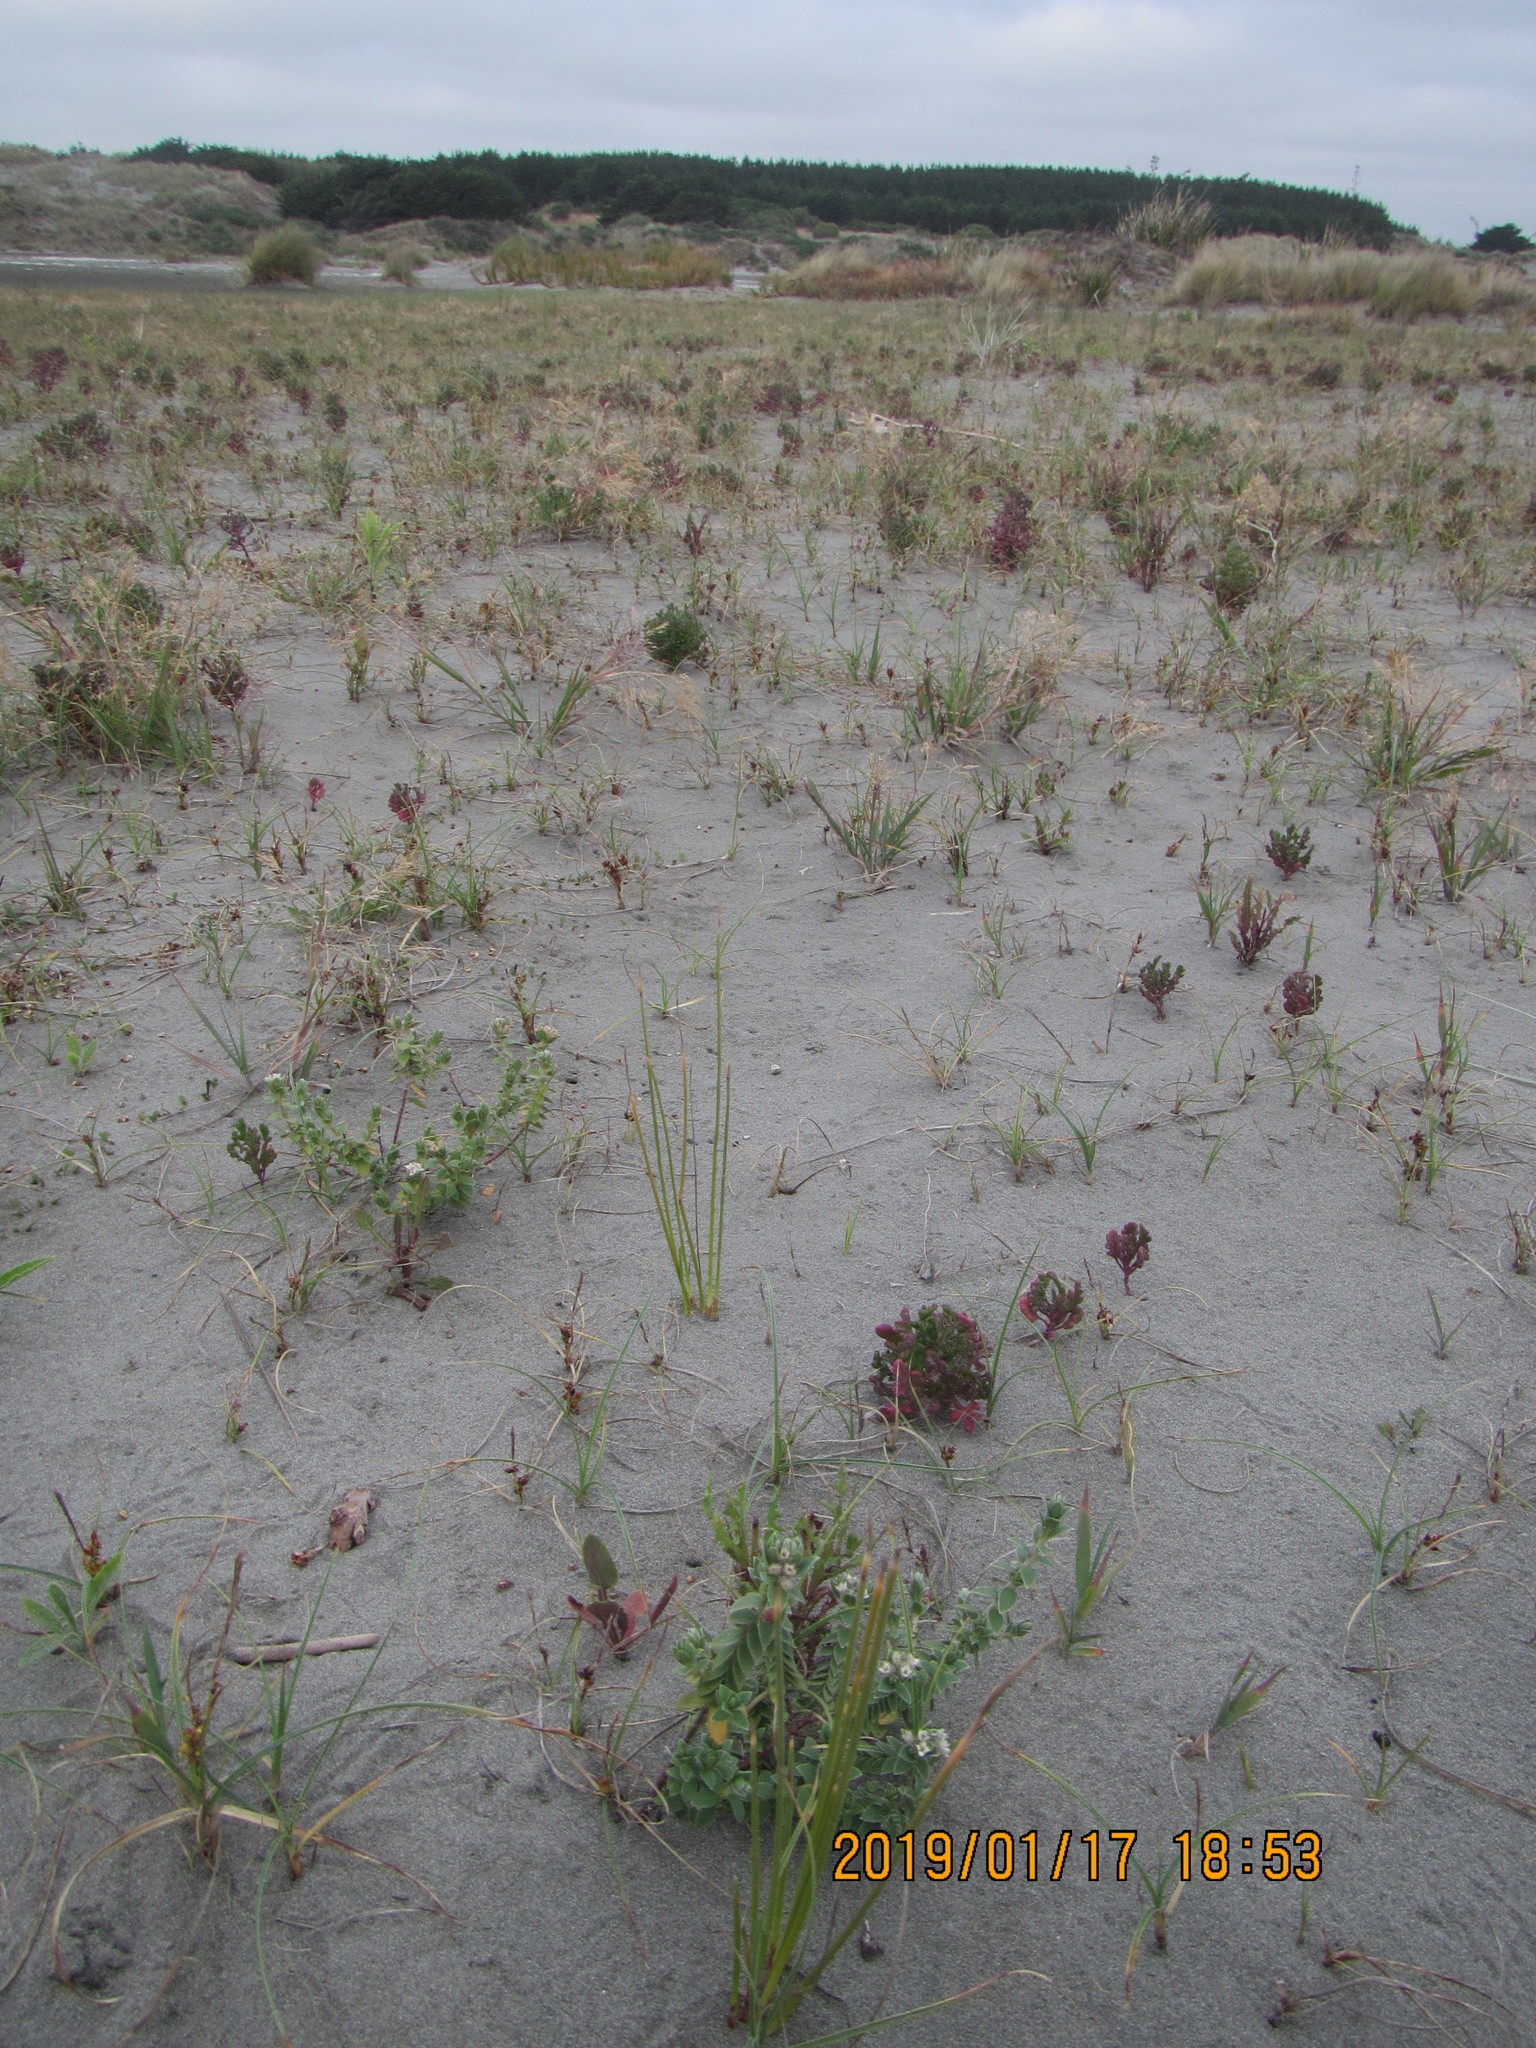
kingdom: Plantae
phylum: Tracheophyta
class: Magnoliopsida
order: Malvales
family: Thymelaeaceae
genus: Pimelea
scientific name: Pimelea villosa
